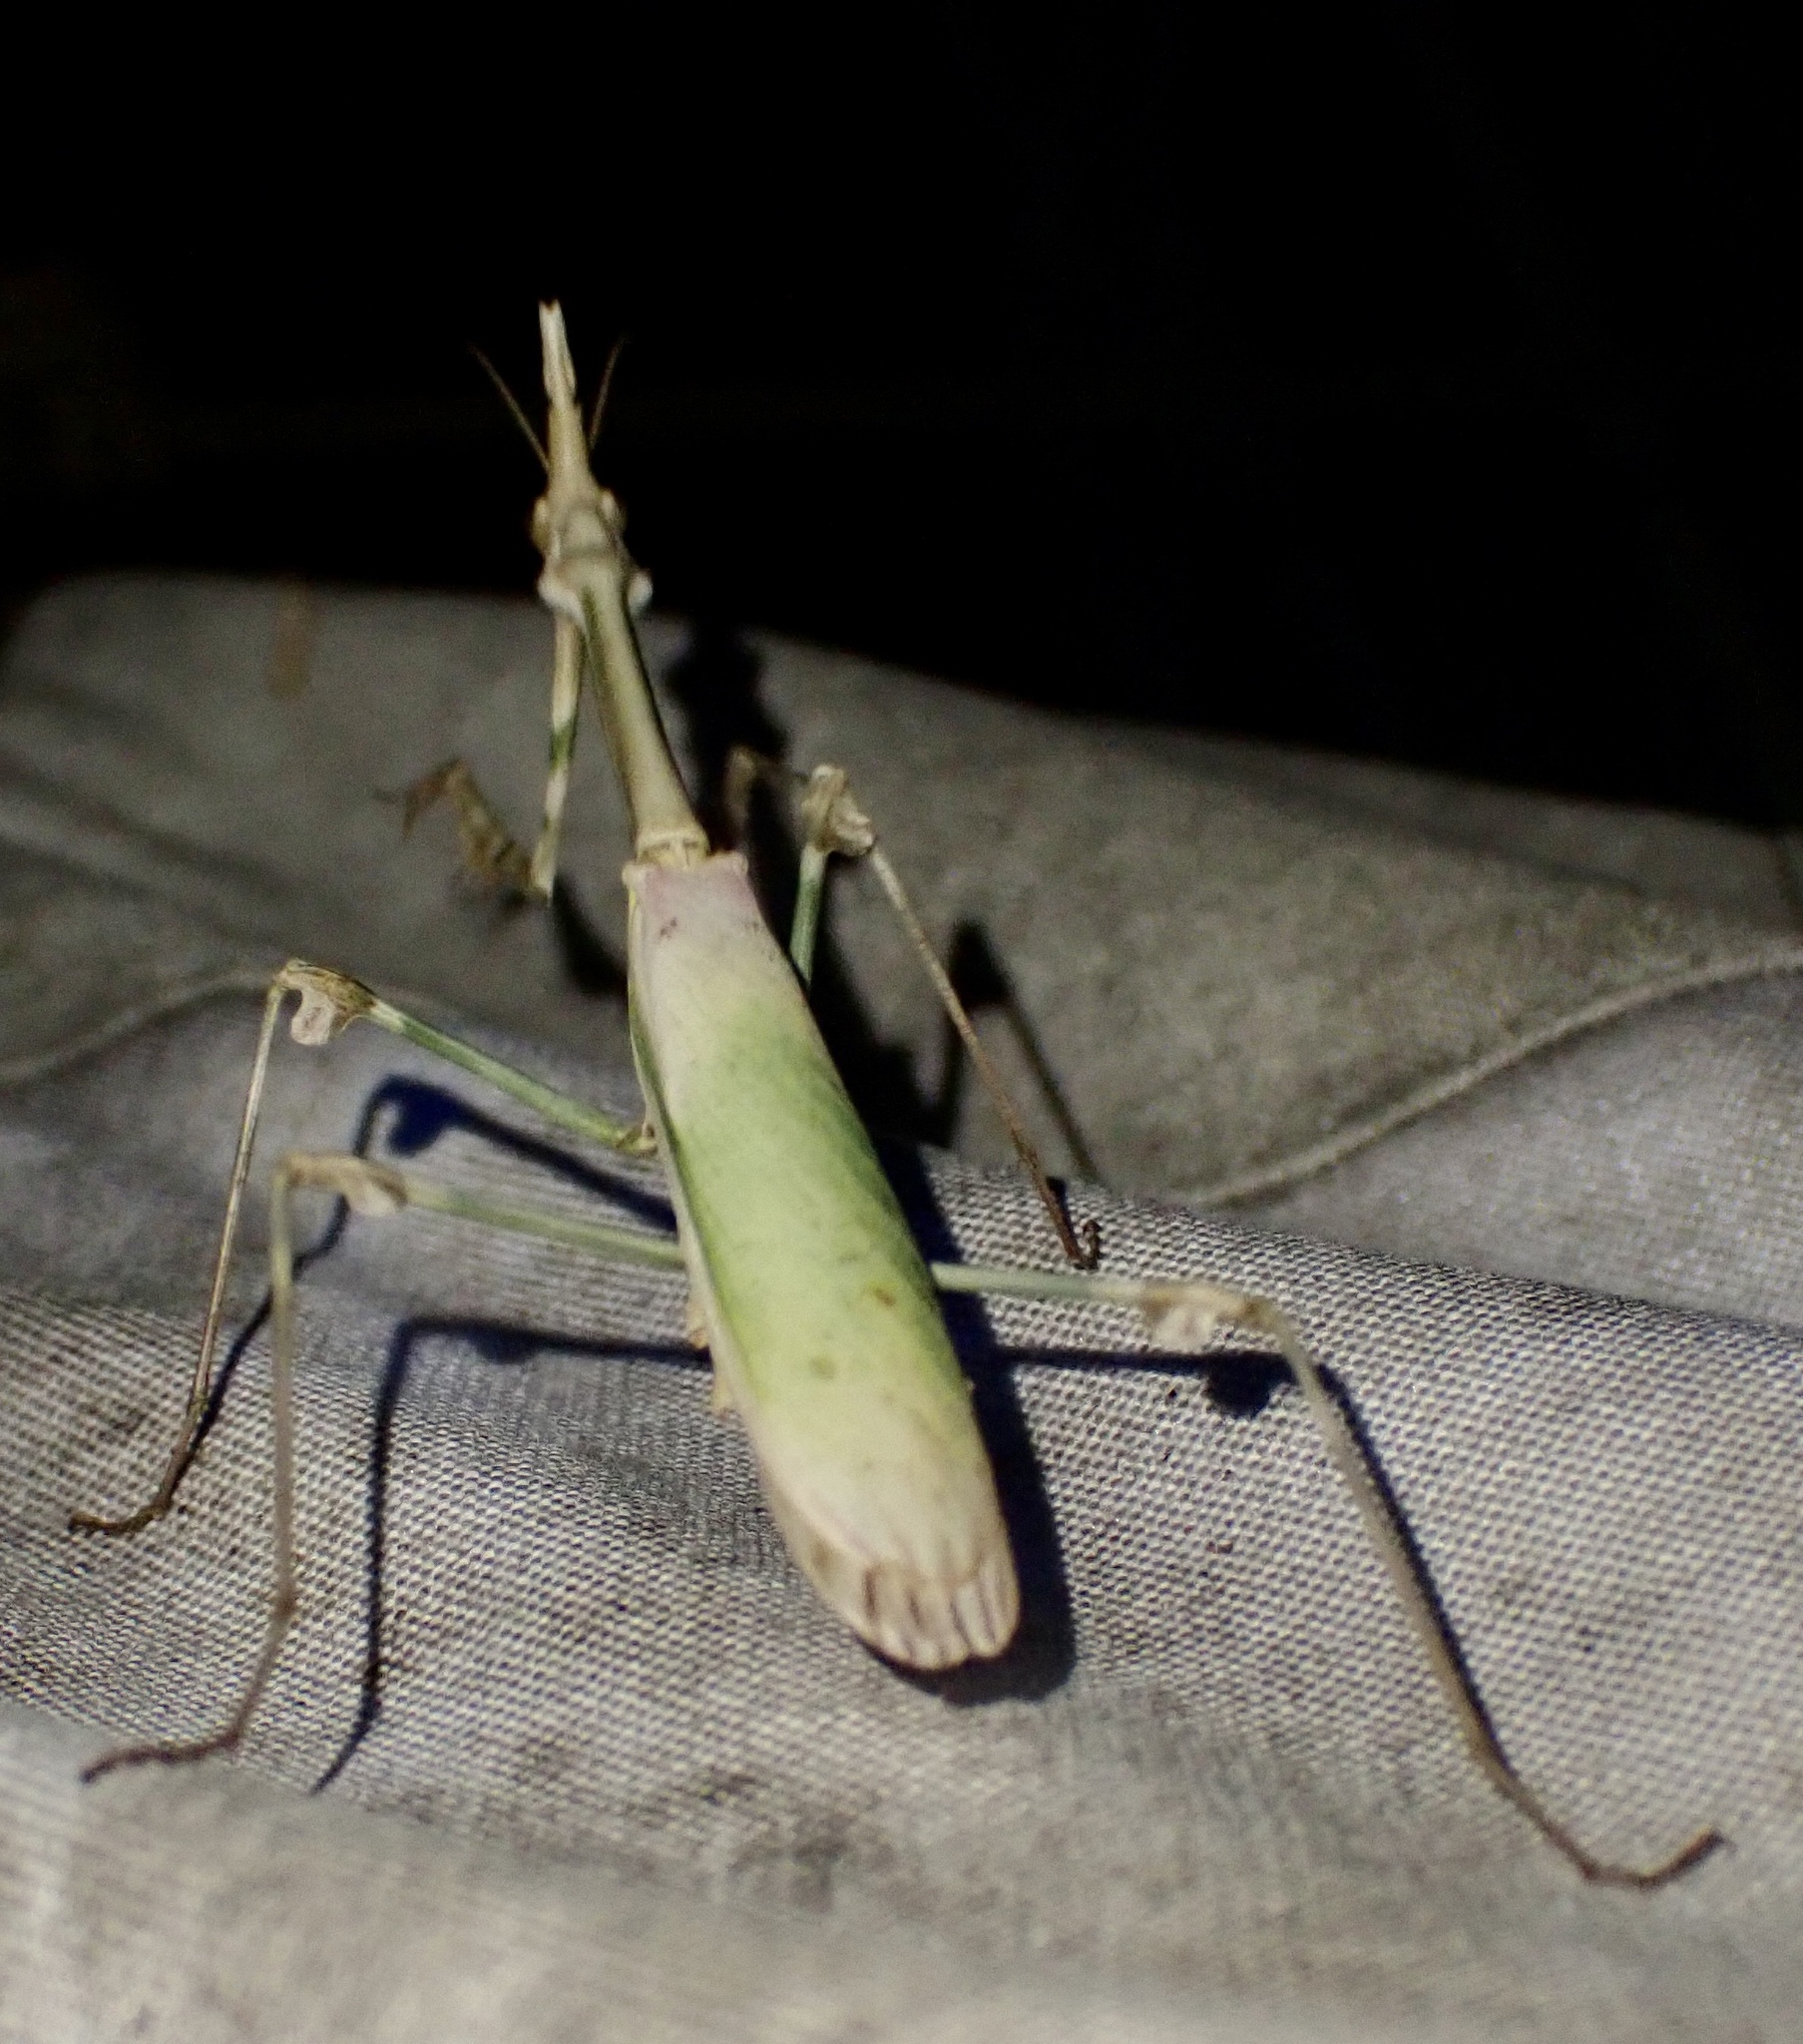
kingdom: Animalia
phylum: Arthropoda
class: Insecta
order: Mantodea
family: Empusidae
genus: Empusa
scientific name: Empusa pennata
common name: Conehead mantis
